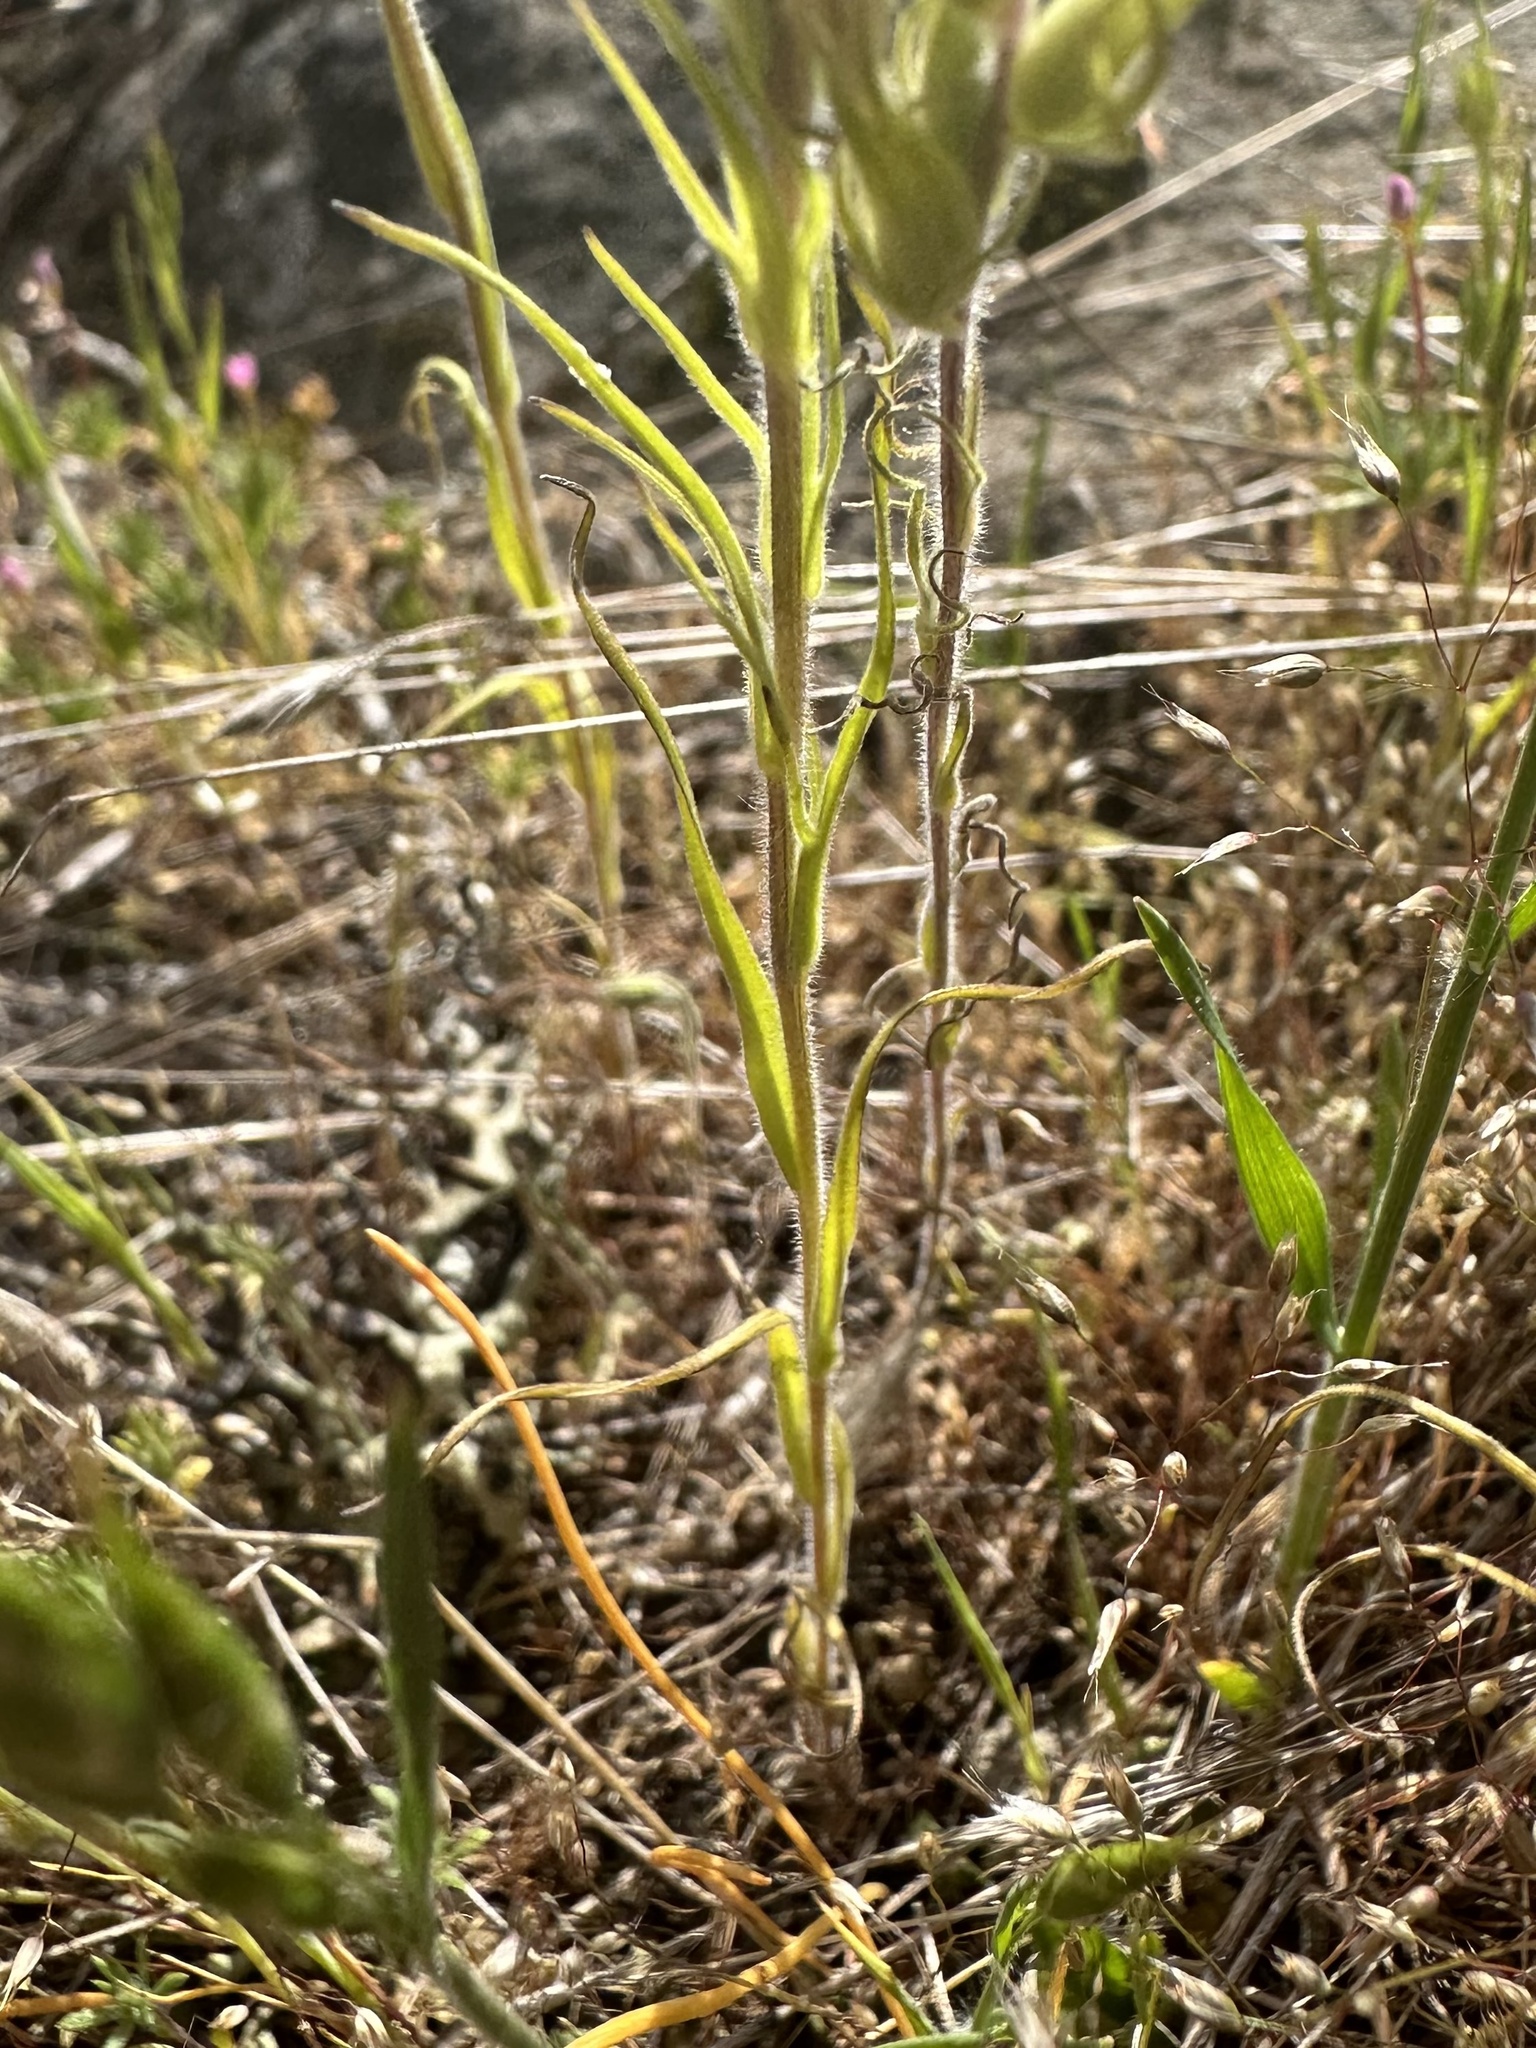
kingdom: Plantae
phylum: Tracheophyta
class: Magnoliopsida
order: Lamiales
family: Orobanchaceae
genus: Castilleja
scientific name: Castilleja attenuata
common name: Valley tassels
